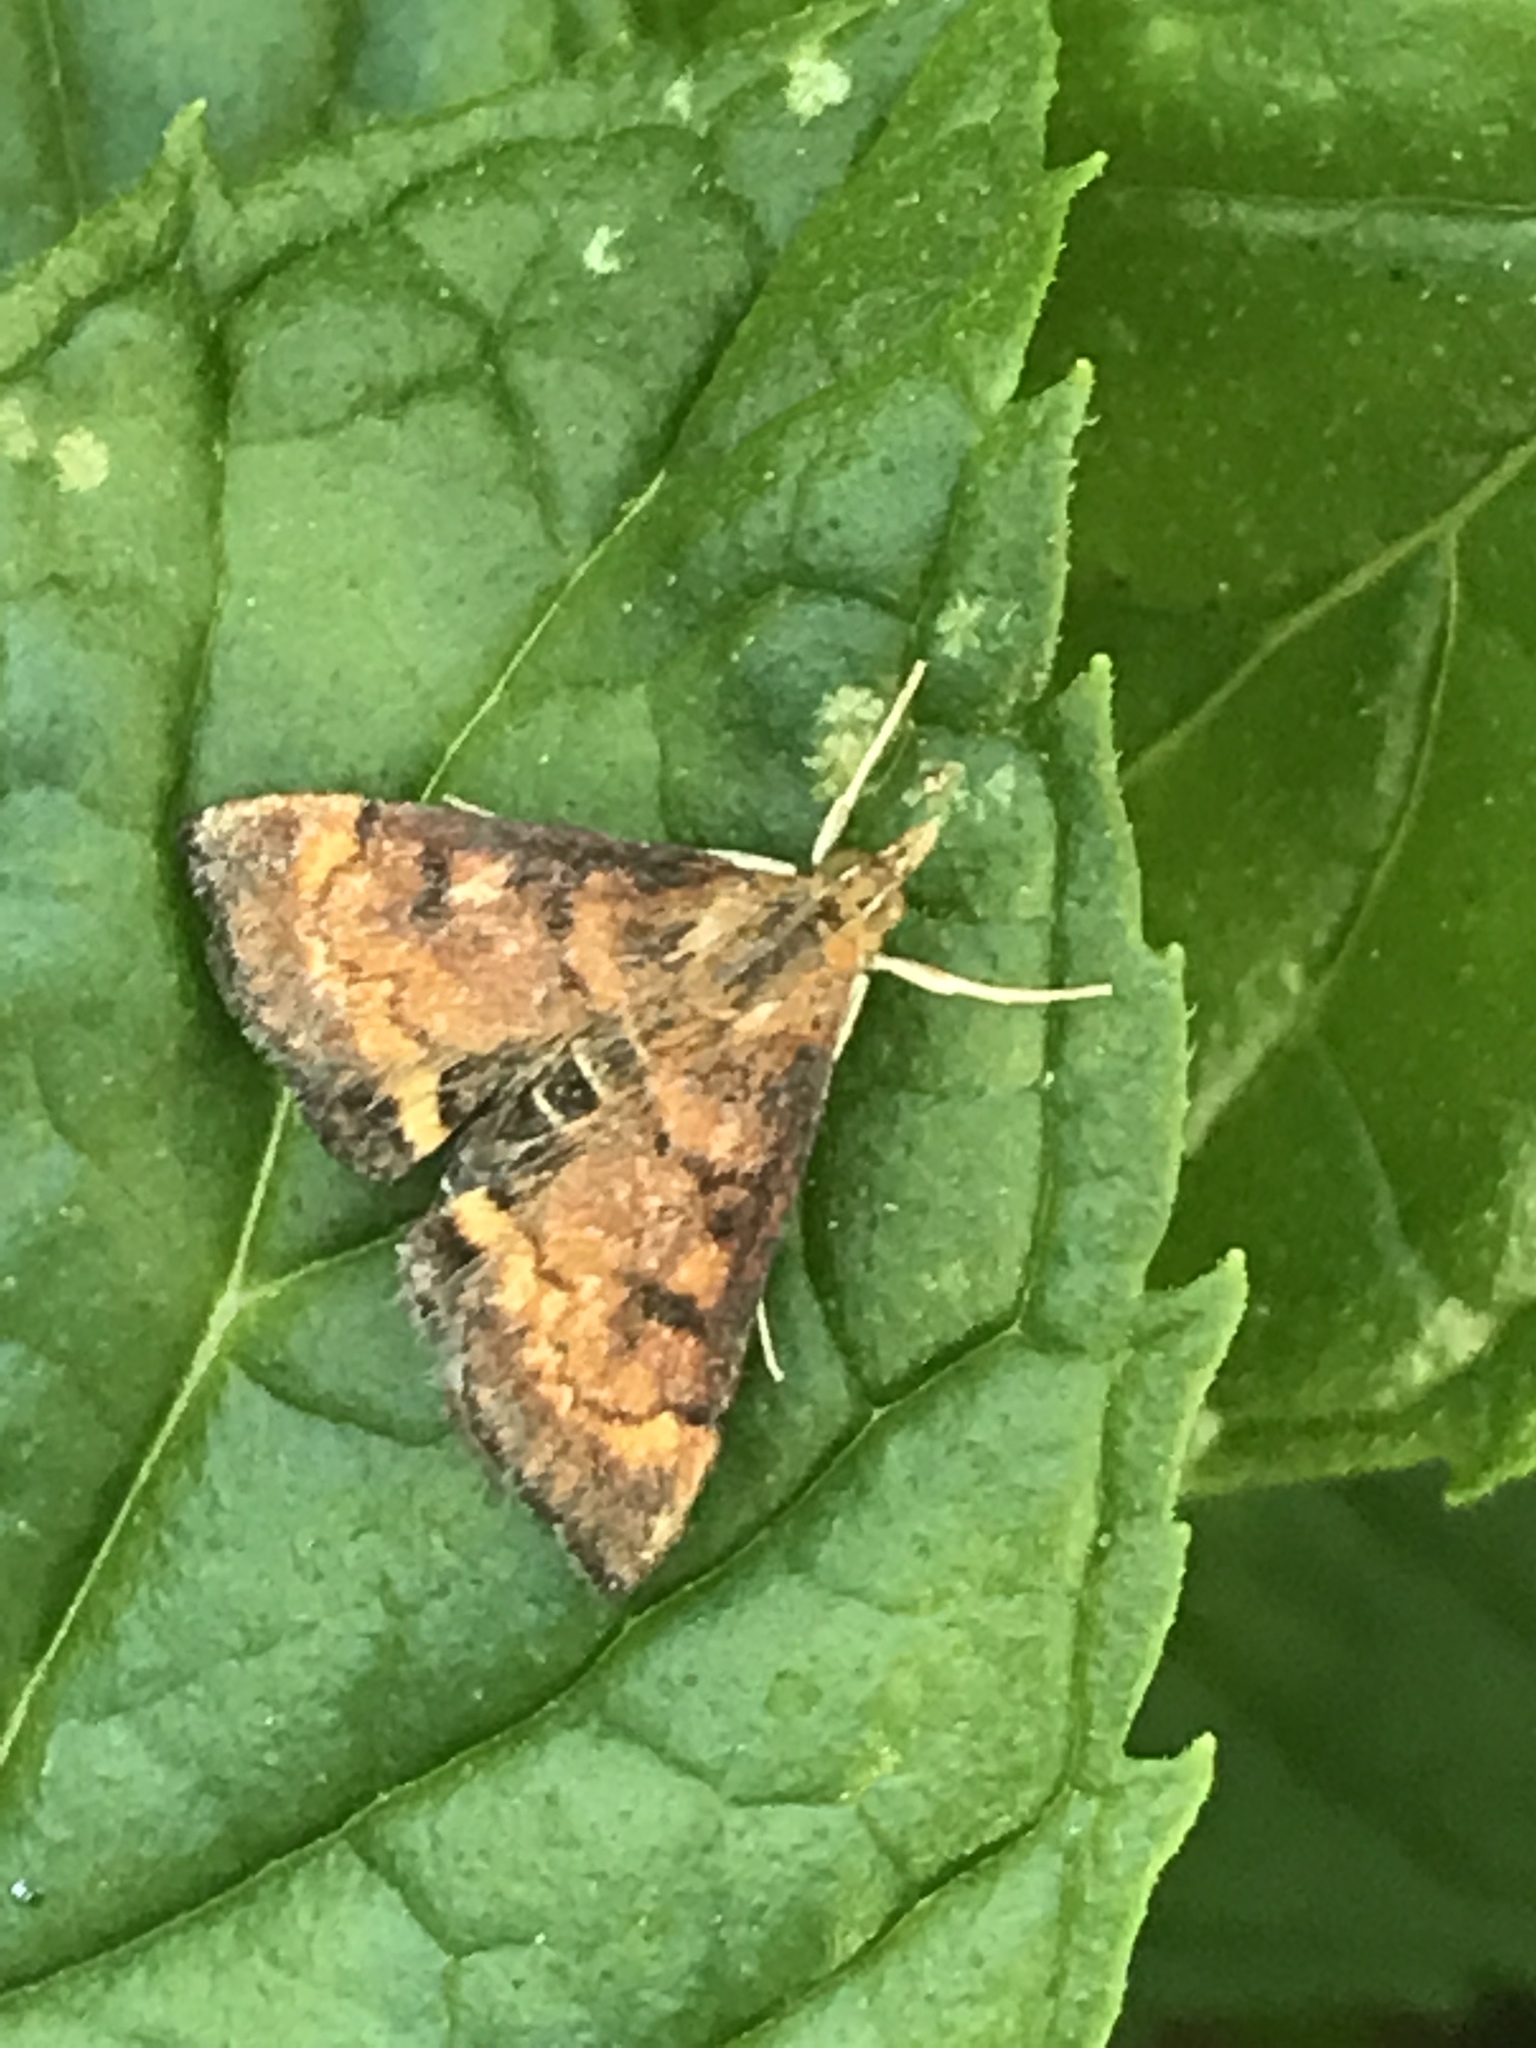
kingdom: Animalia
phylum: Arthropoda
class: Insecta
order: Lepidoptera
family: Crambidae
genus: Pyrausta
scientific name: Pyrausta californicalis
